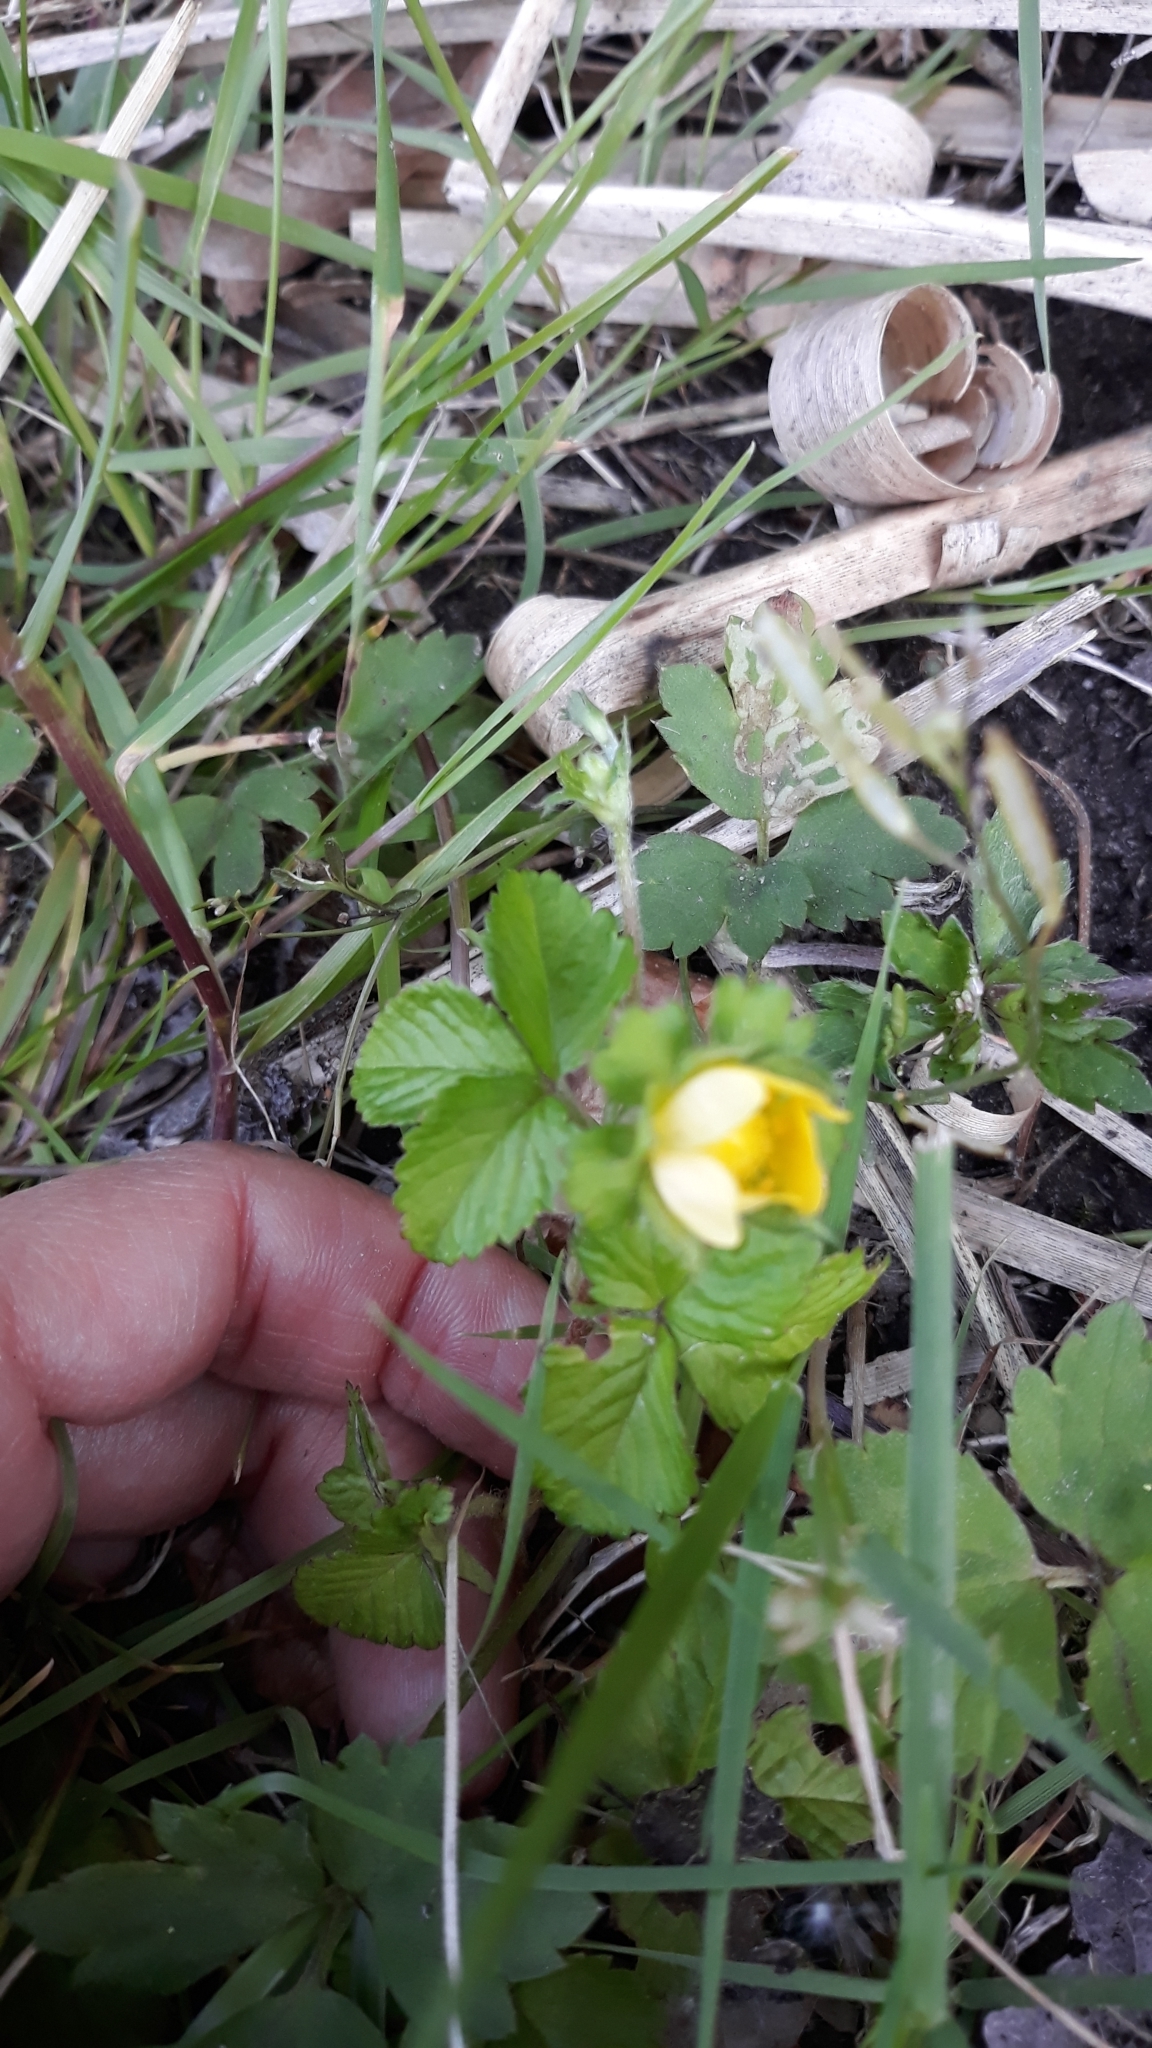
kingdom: Plantae
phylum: Tracheophyta
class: Magnoliopsida
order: Rosales
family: Rosaceae
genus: Potentilla
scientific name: Potentilla indica
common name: Yellow-flowered strawberry
